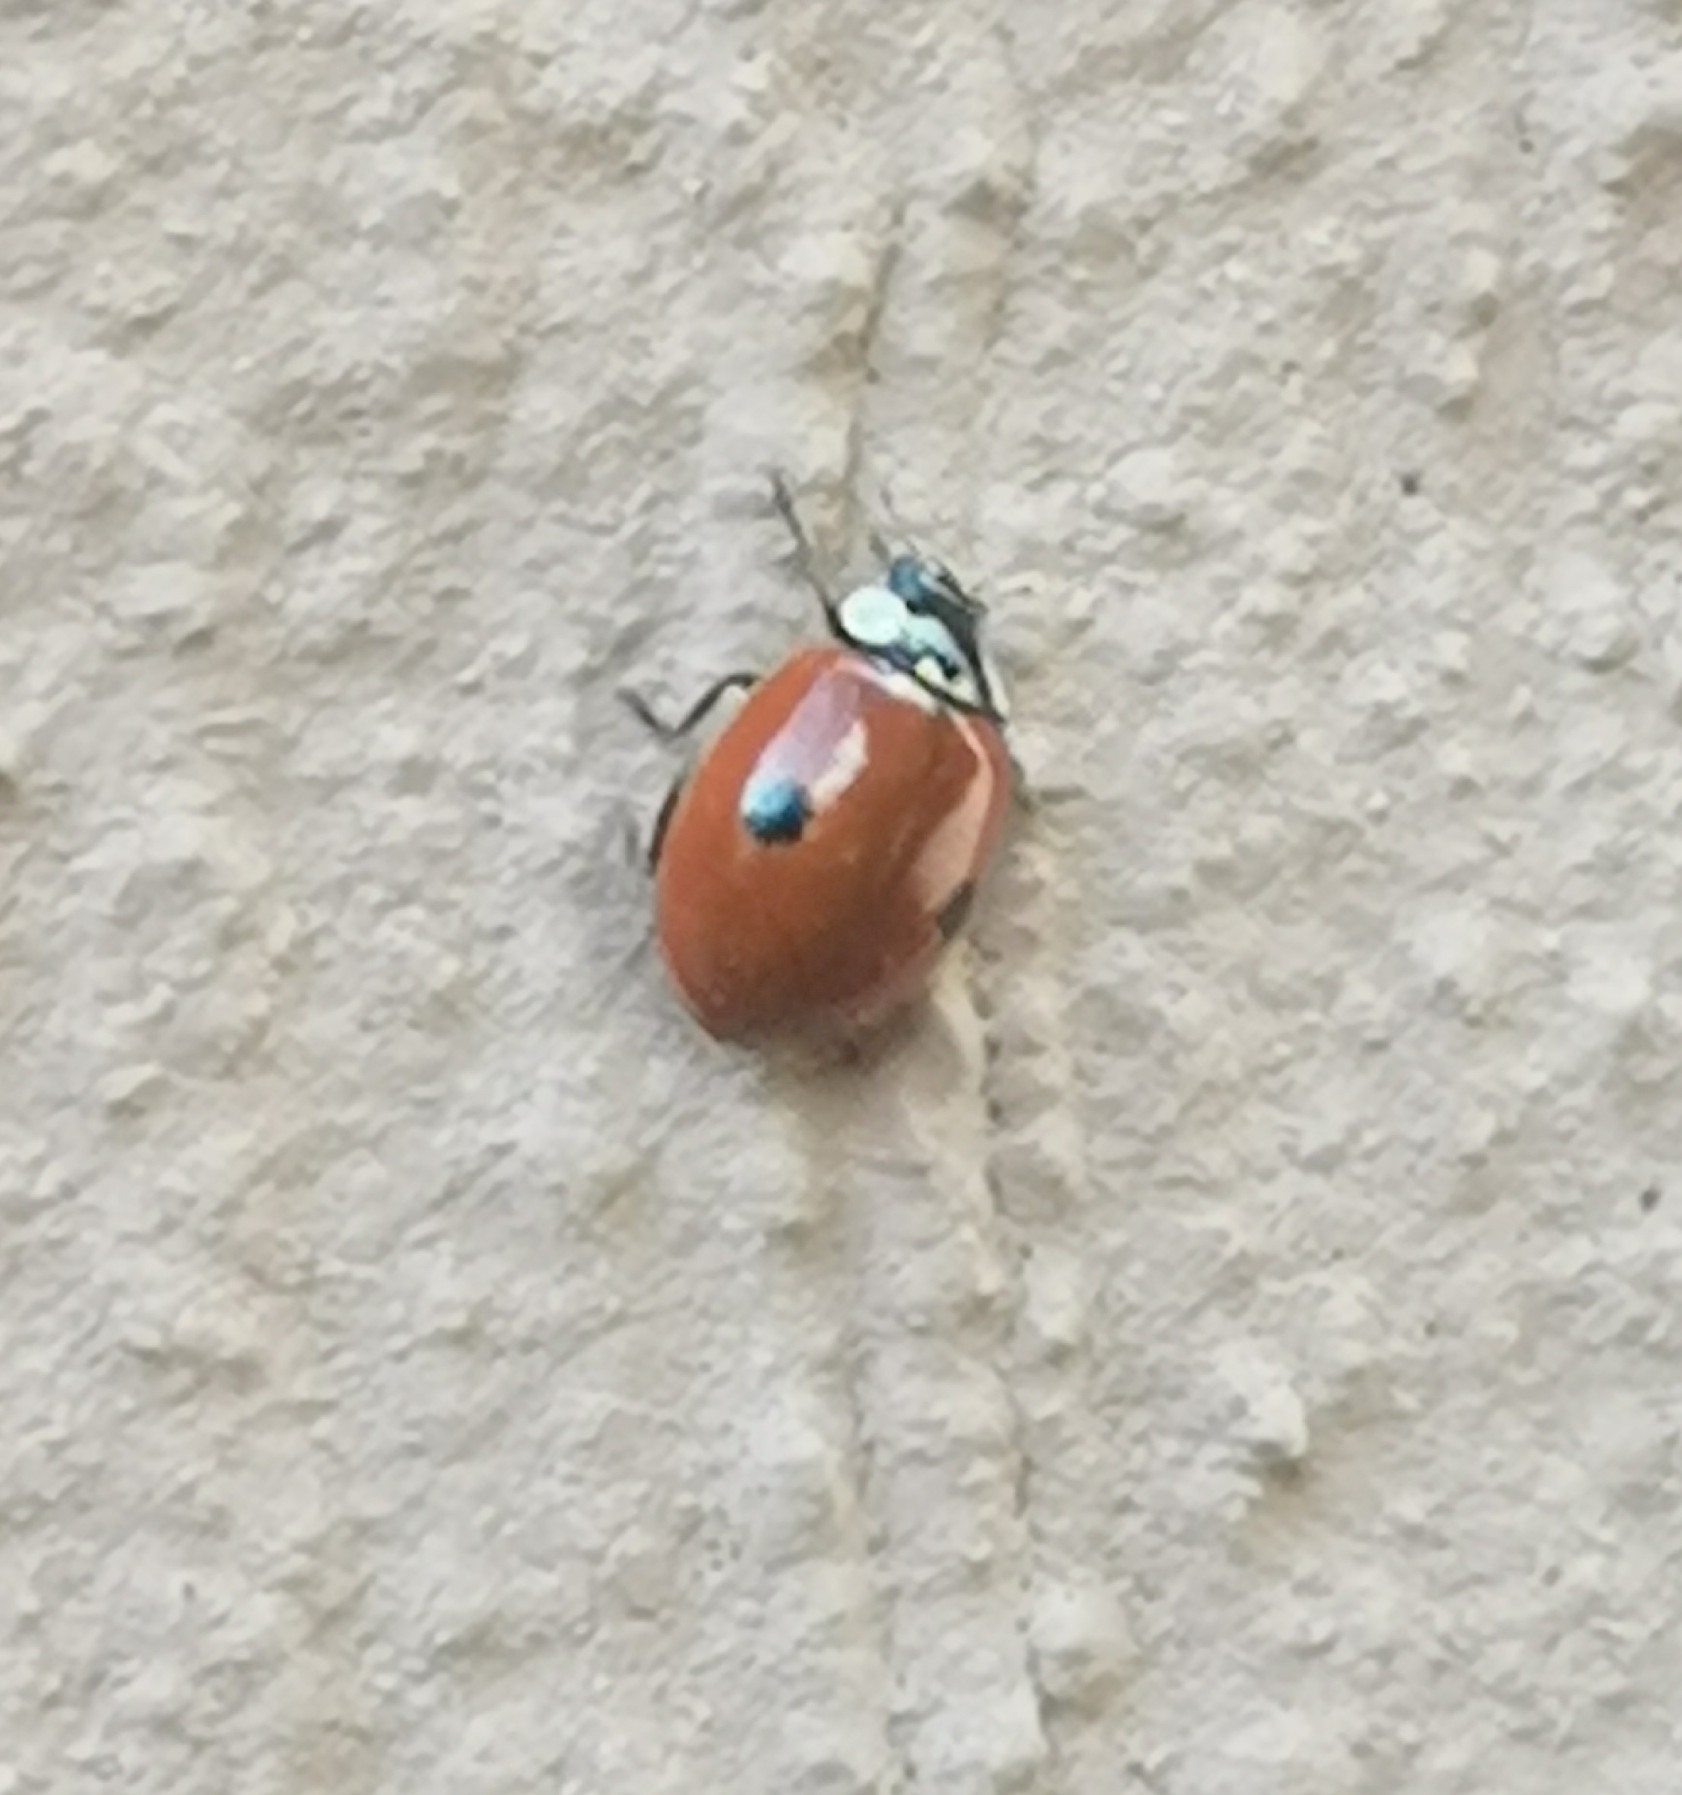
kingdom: Animalia
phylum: Arthropoda
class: Insecta
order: Coleoptera
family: Coccinellidae
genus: Adalia
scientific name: Adalia bipunctata
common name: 2-spot ladybird
